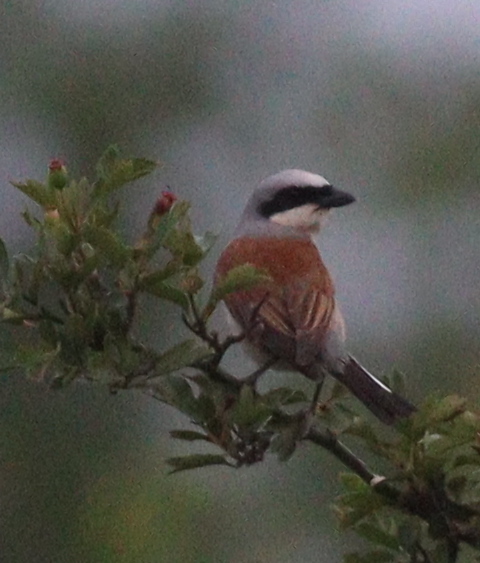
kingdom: Animalia
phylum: Chordata
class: Aves
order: Passeriformes
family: Laniidae
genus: Lanius
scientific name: Lanius collurio
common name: Red-backed shrike
